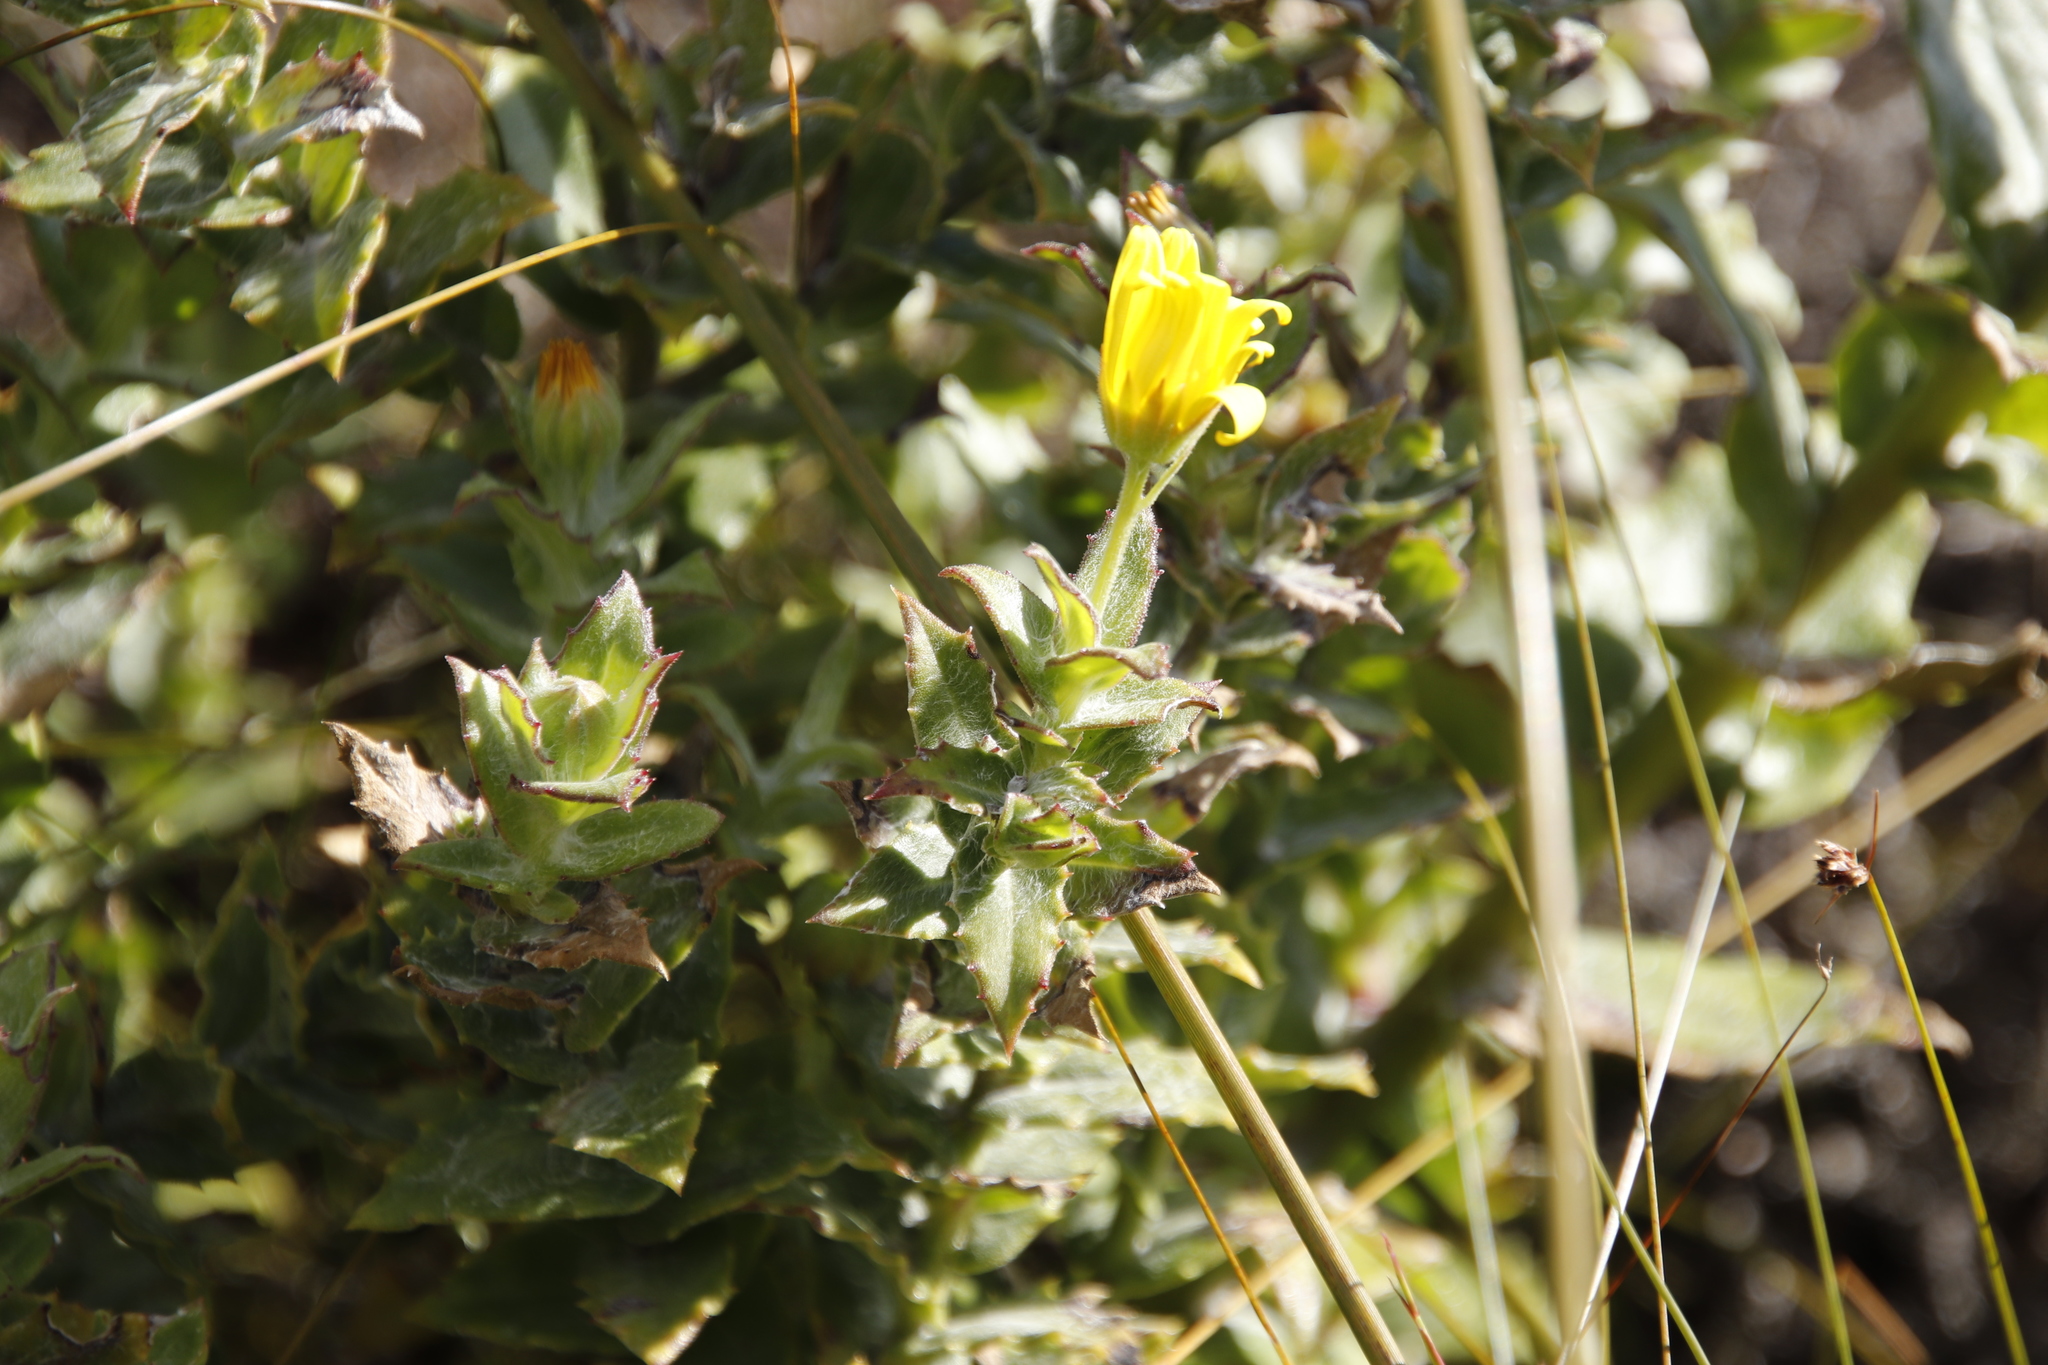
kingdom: Plantae
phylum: Tracheophyta
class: Magnoliopsida
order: Asterales
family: Asteraceae
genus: Osteospermum
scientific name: Osteospermum ilicifolium
